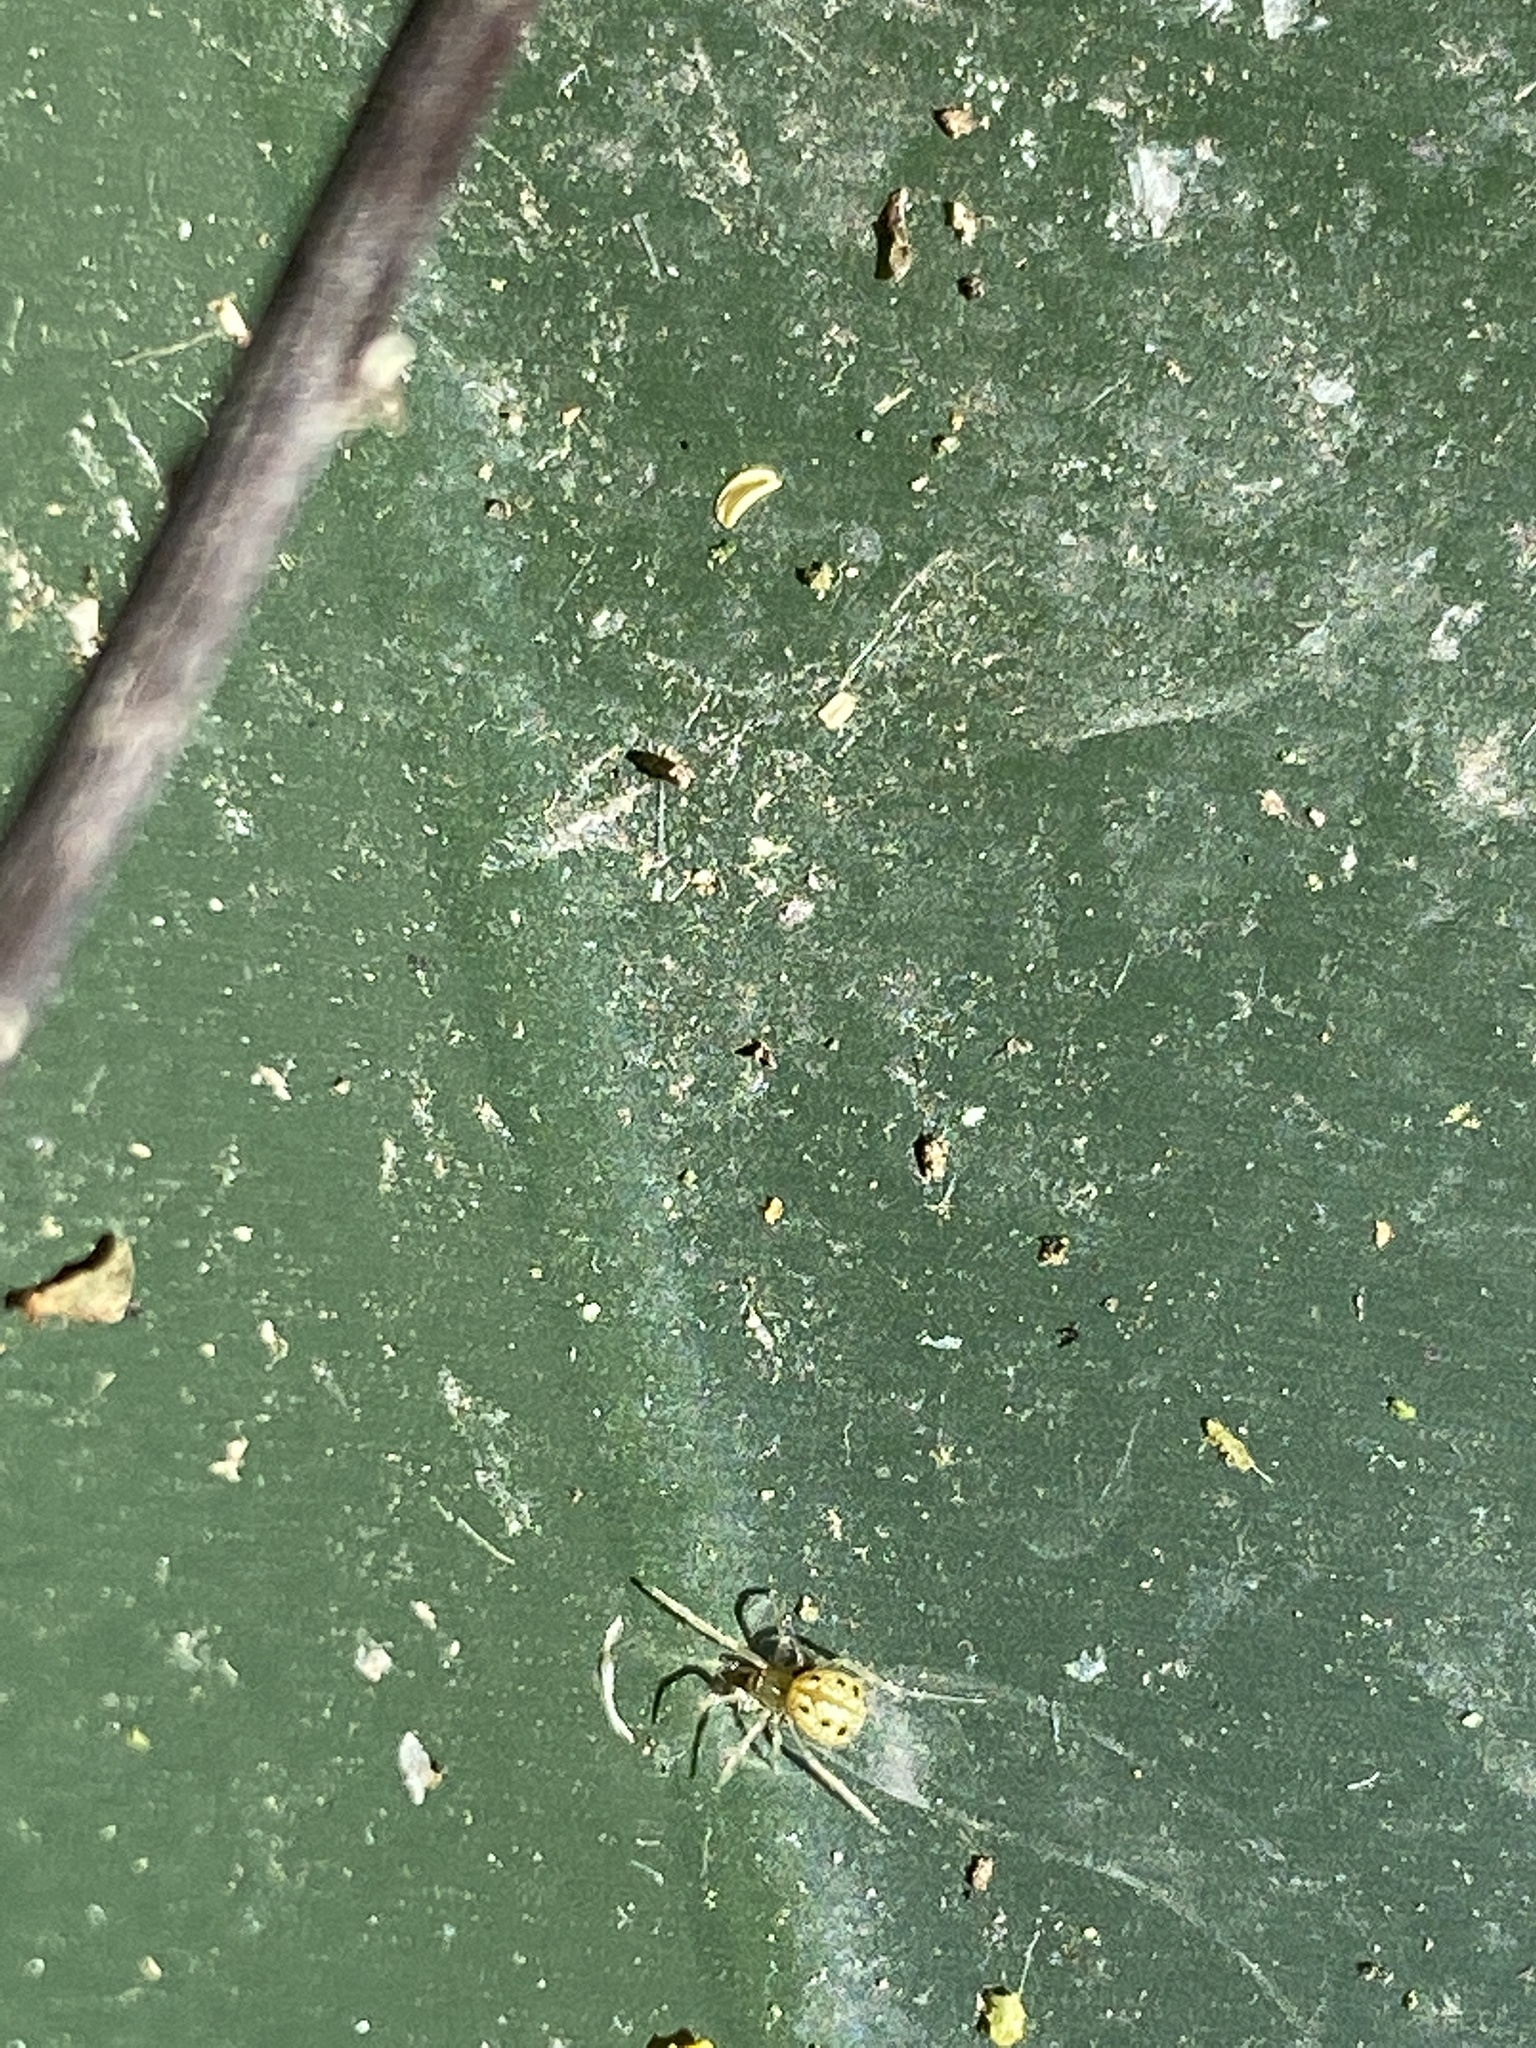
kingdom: Animalia
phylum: Arthropoda
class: Arachnida
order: Araneae
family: Theridiidae
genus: Enoplognatha
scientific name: Enoplognatha ovata
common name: Common candy-striped spider
